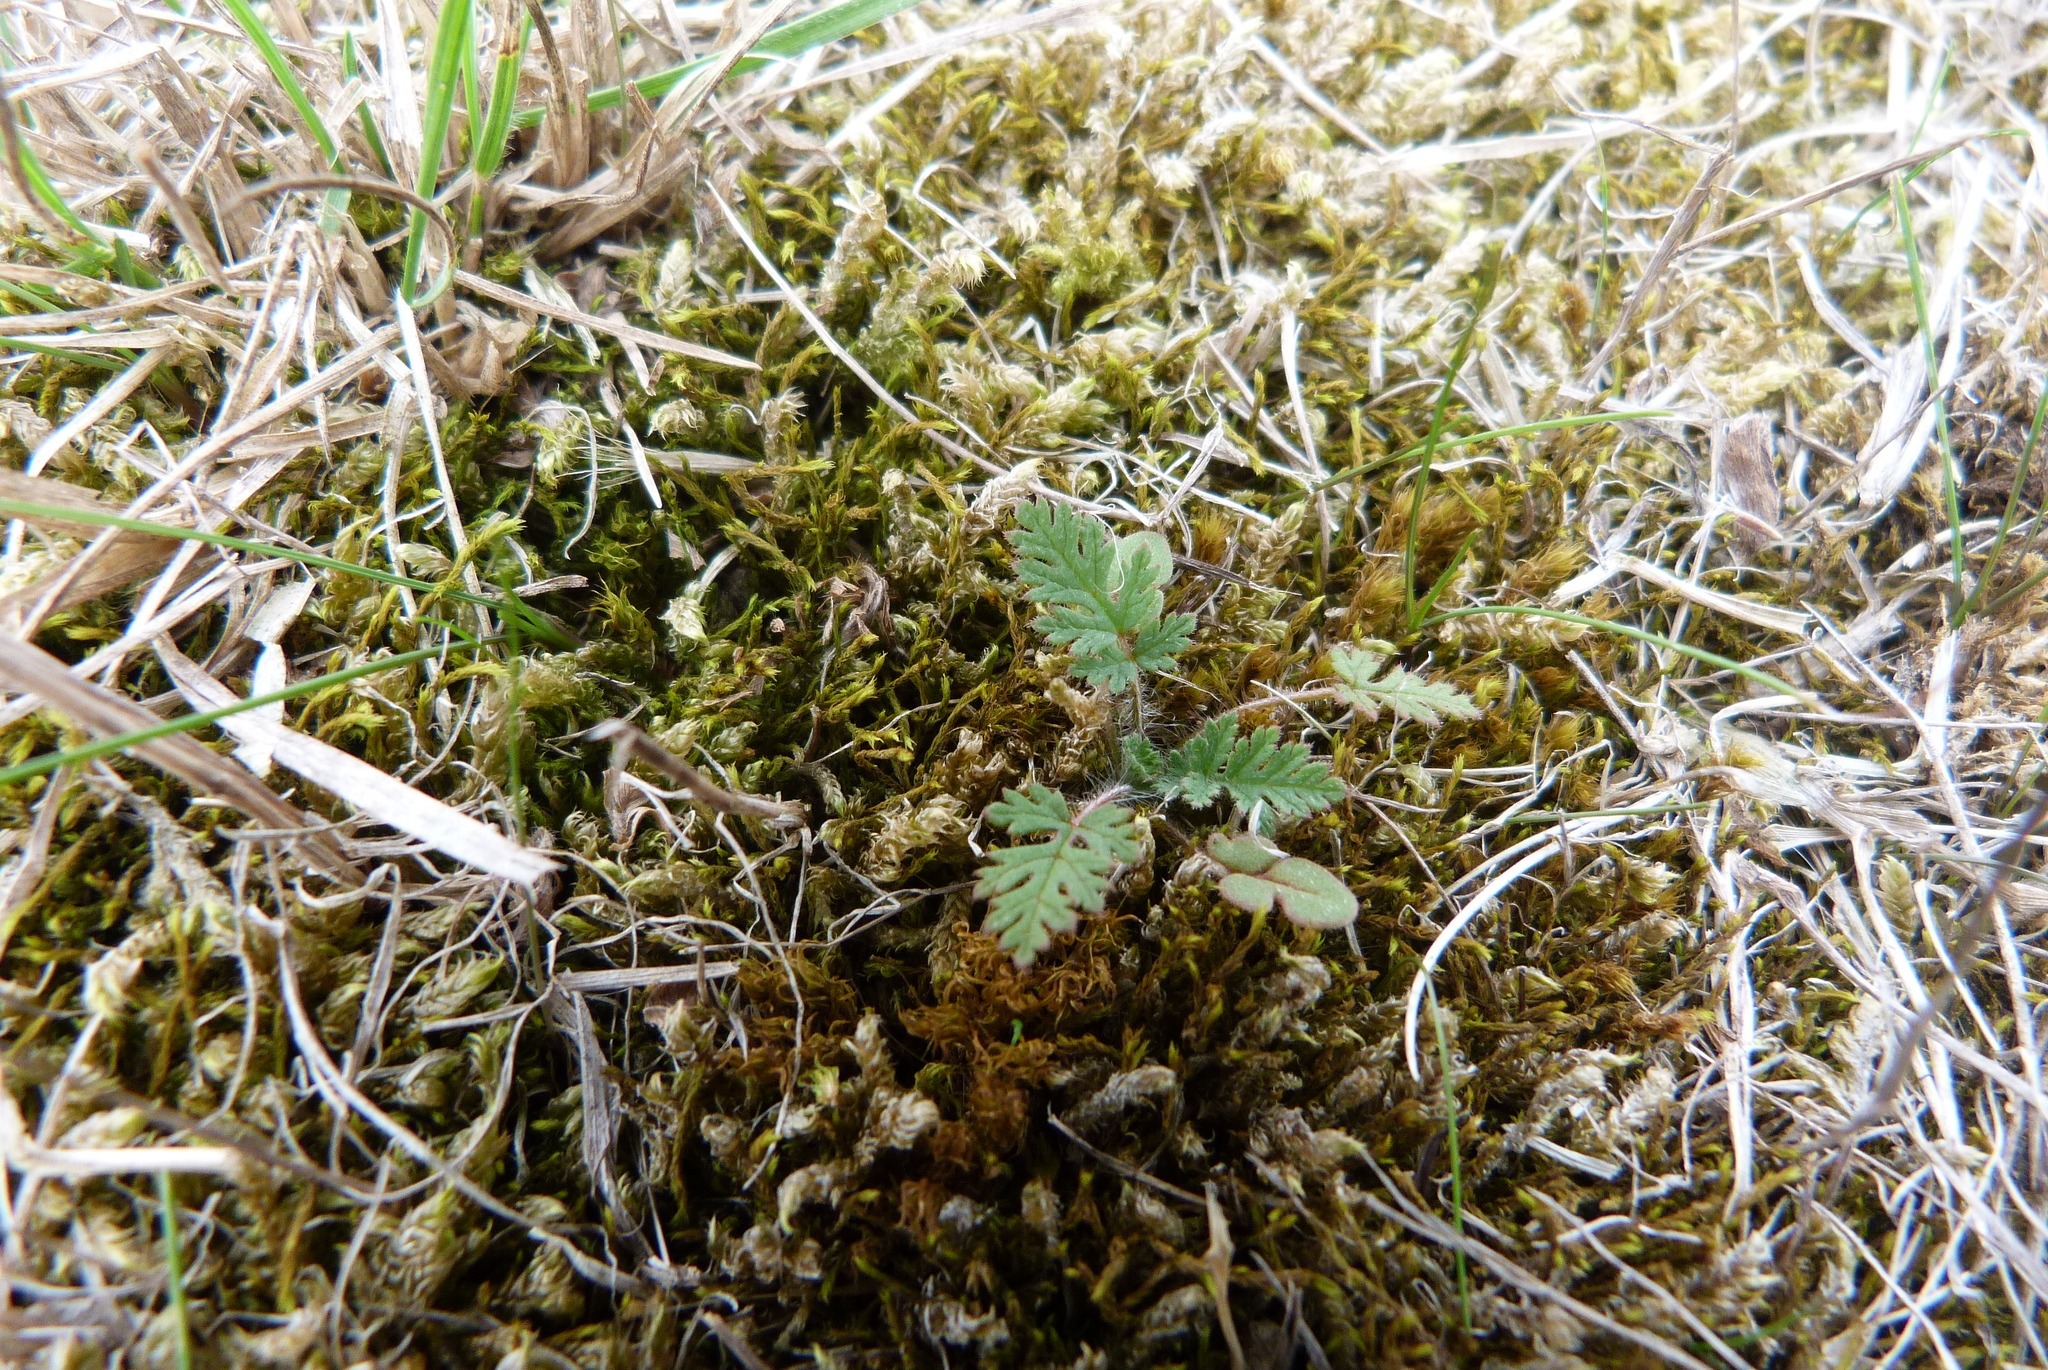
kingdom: Plantae
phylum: Tracheophyta
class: Magnoliopsida
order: Geraniales
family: Geraniaceae
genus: Erodium
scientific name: Erodium cicutarium
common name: Common stork's-bill
